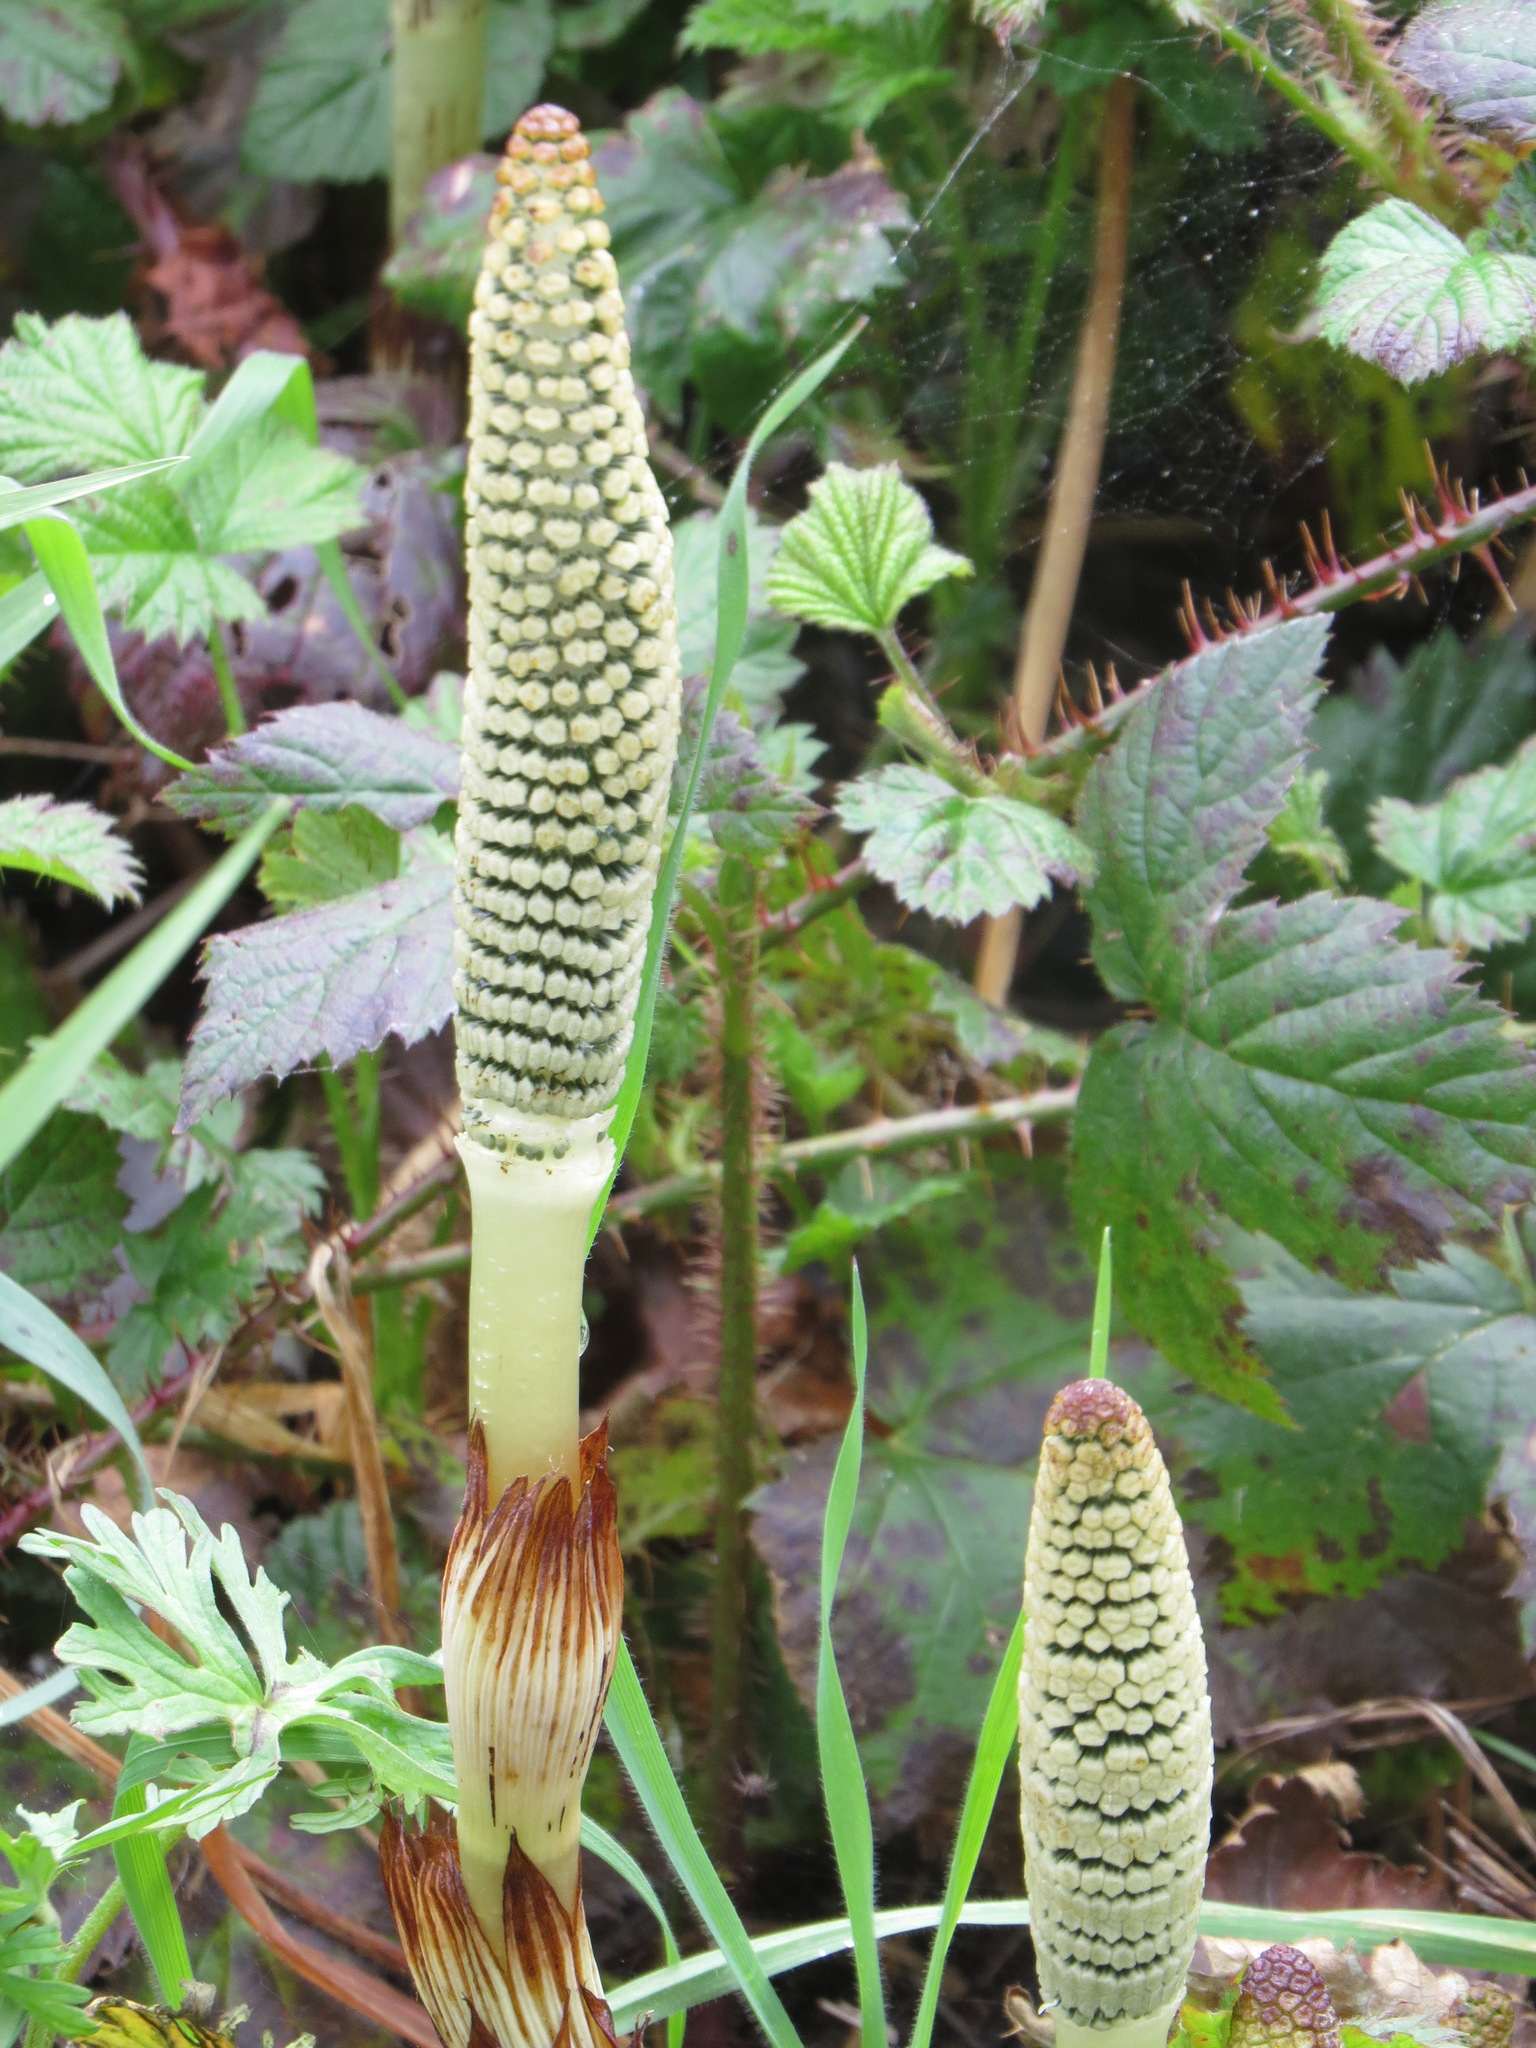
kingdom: Plantae
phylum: Tracheophyta
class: Polypodiopsida
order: Equisetales
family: Equisetaceae
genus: Equisetum
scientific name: Equisetum telmateia
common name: Great horsetail
